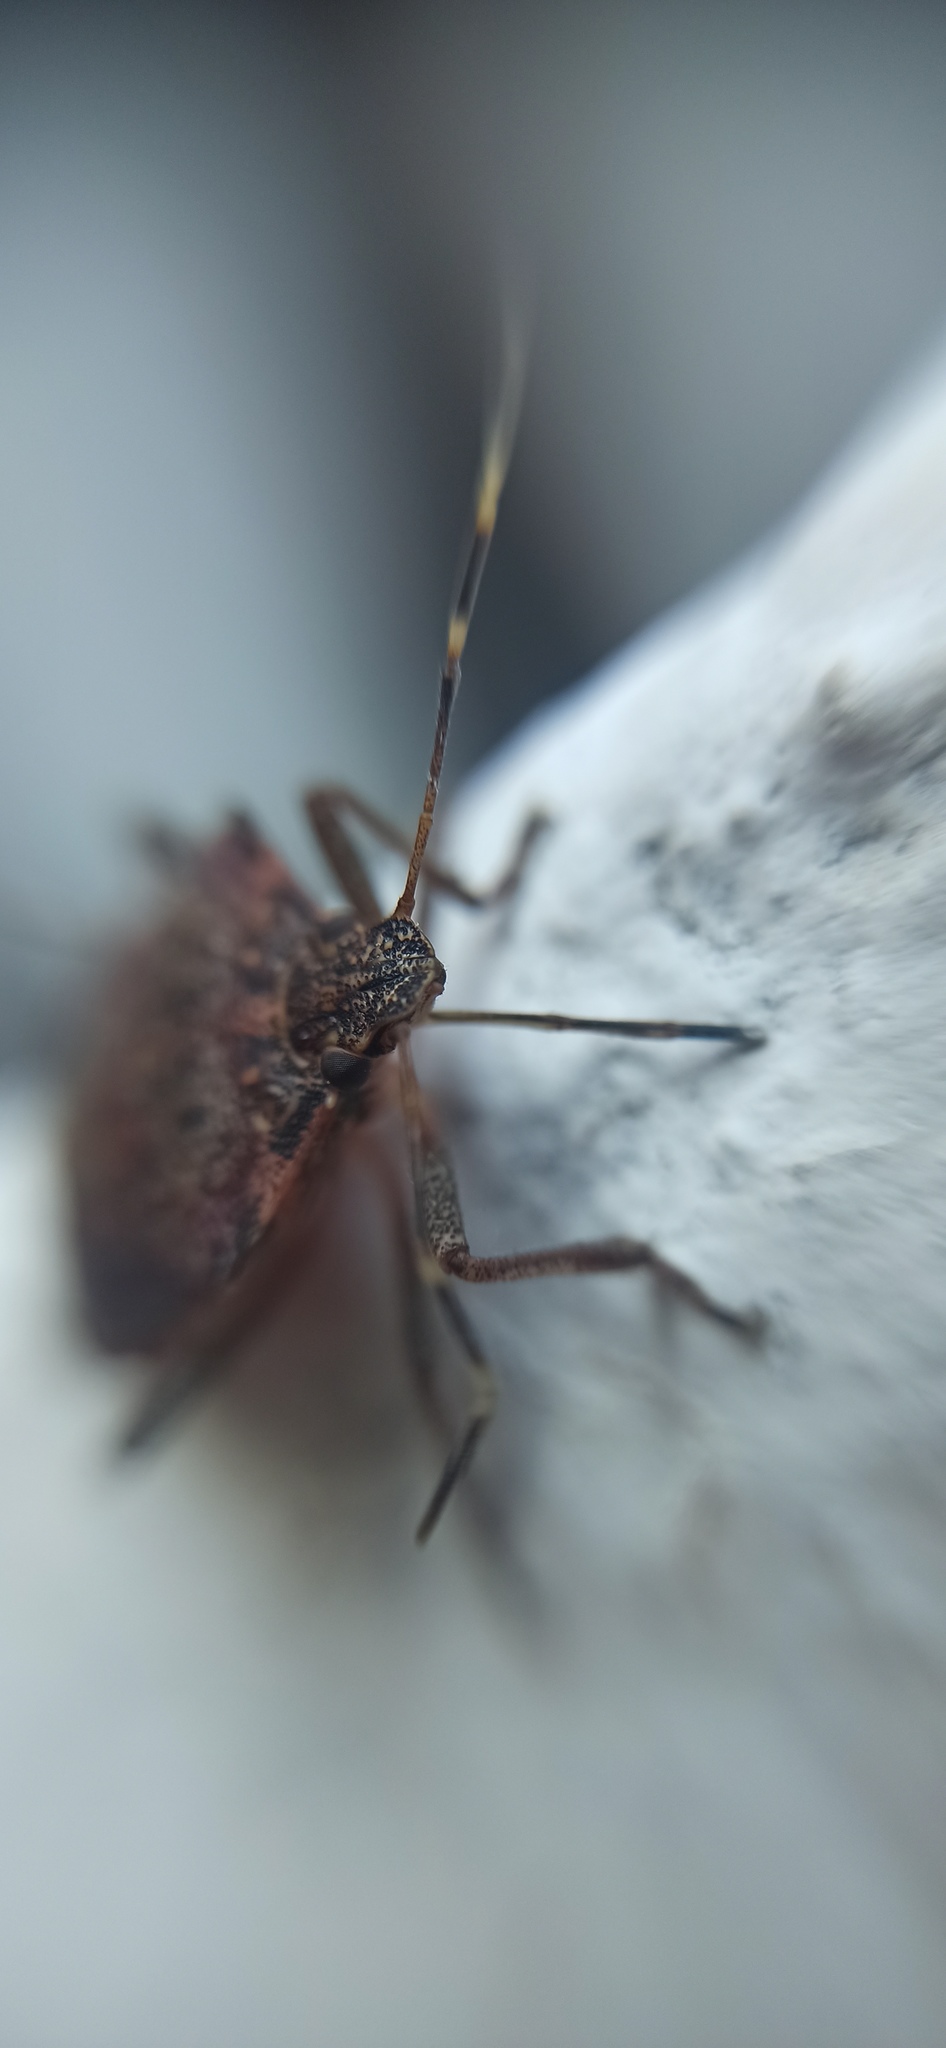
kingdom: Animalia
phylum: Arthropoda
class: Insecta
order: Hemiptera
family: Pentatomidae
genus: Halyomorpha
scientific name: Halyomorpha halys
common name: Brown marmorated stink bug
